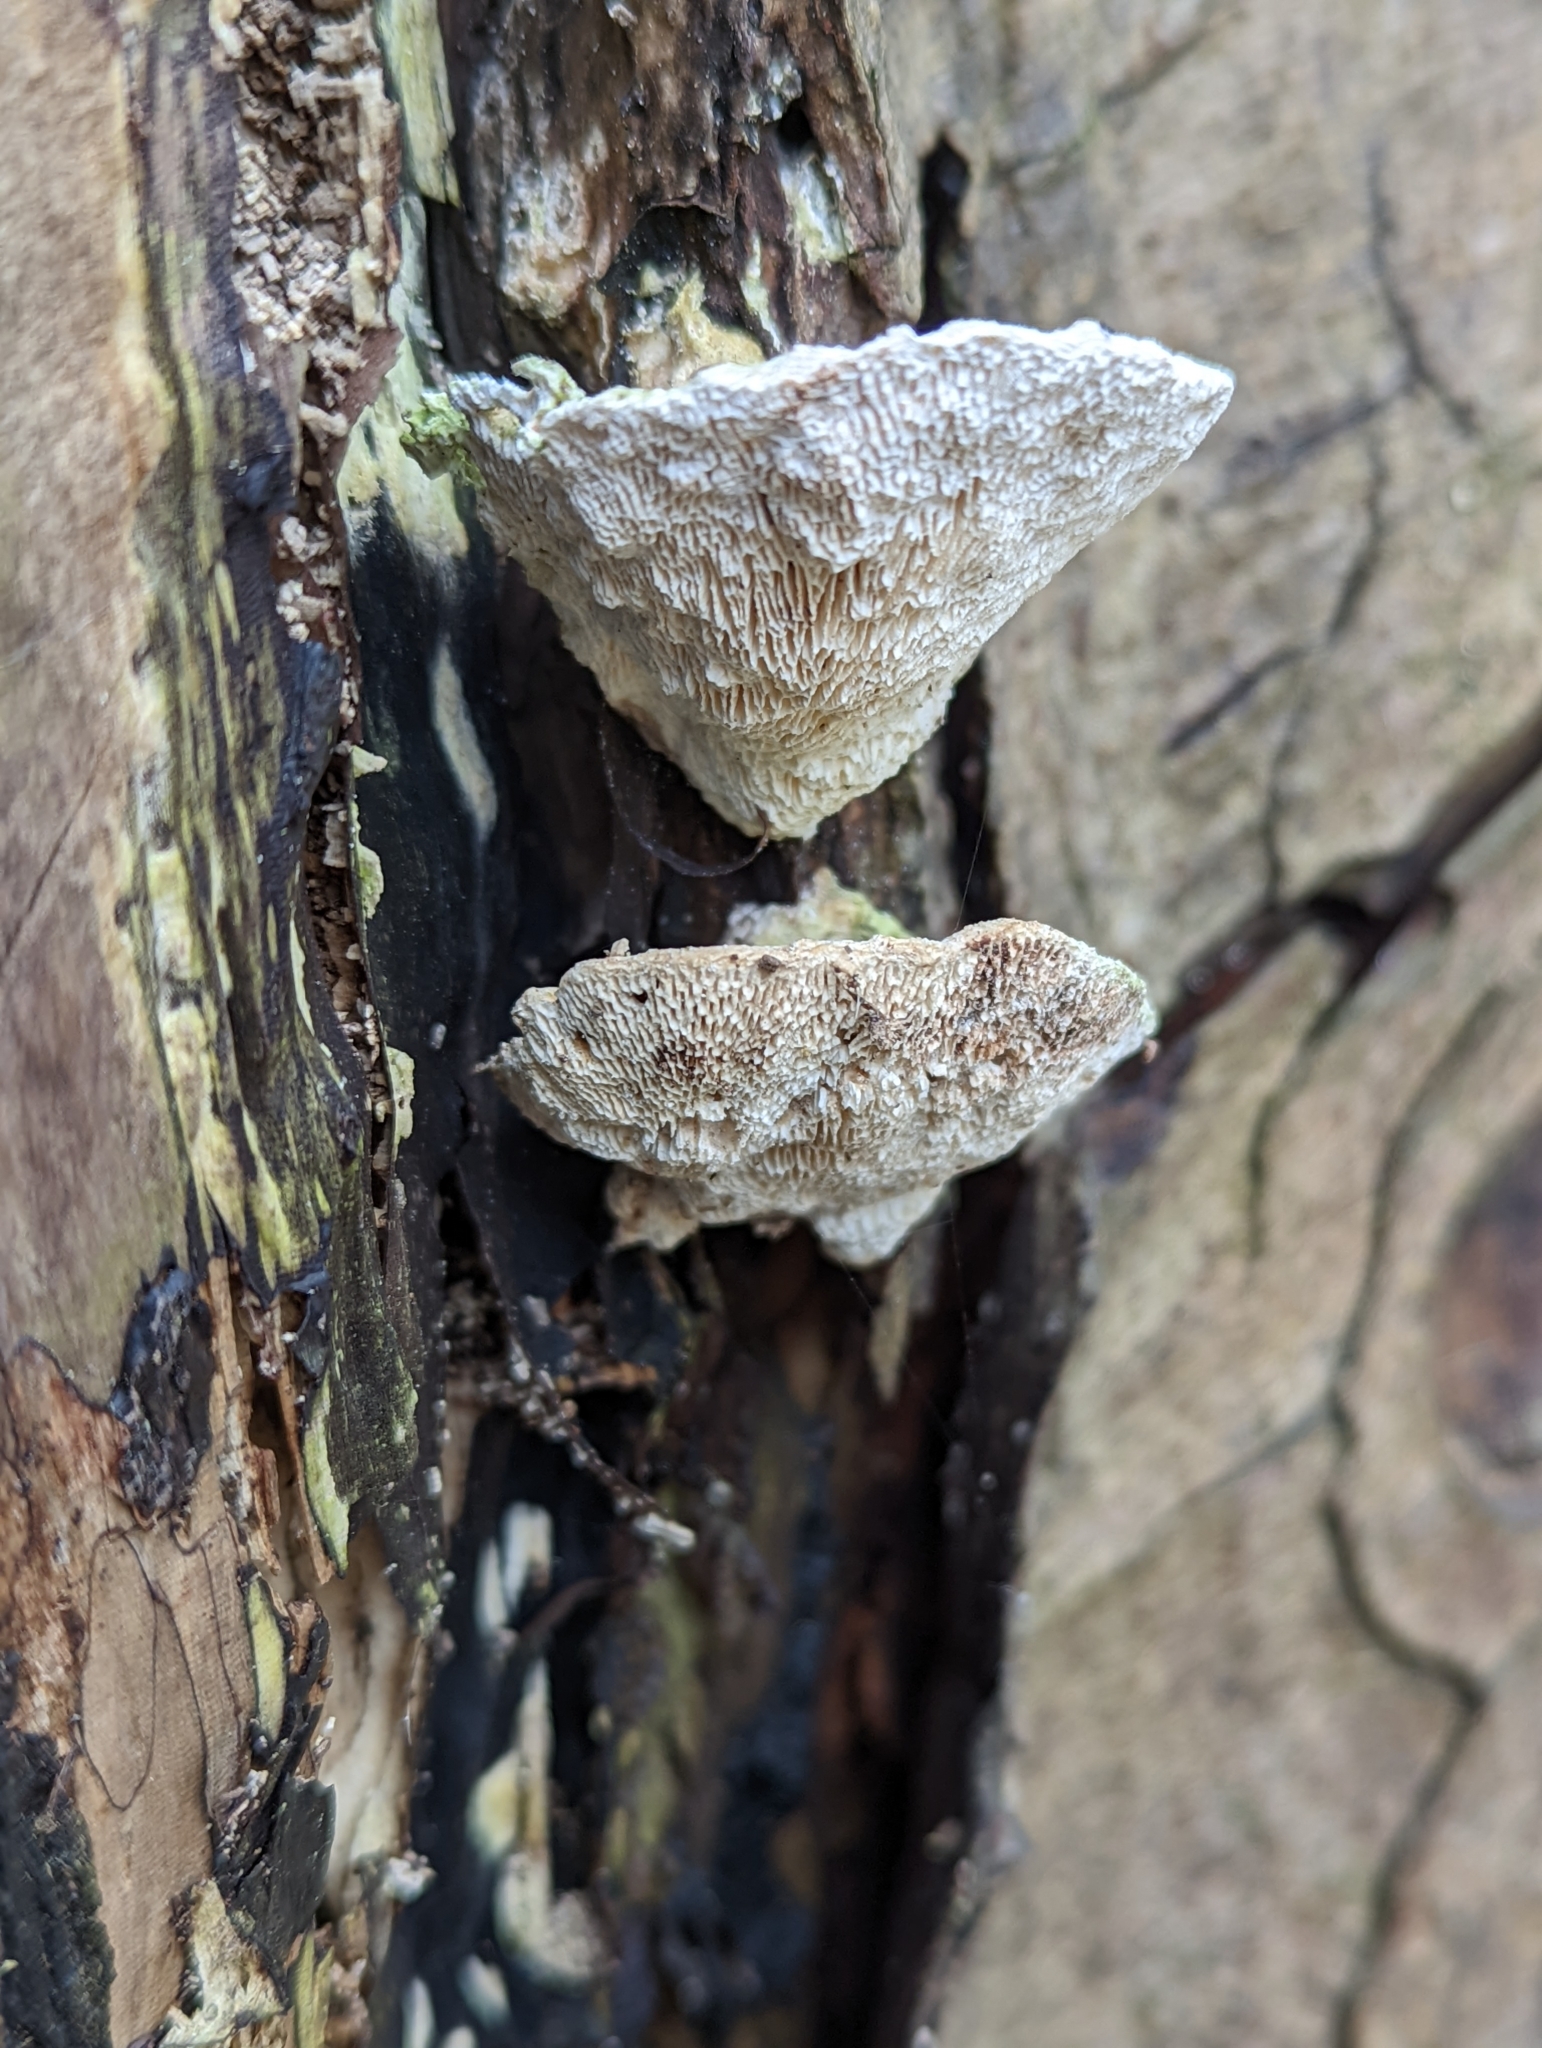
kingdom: Fungi
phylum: Basidiomycota
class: Agaricomycetes
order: Polyporales
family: Polyporaceae
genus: Trametes
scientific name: Trametes gibbosa
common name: Lumpy bracket
